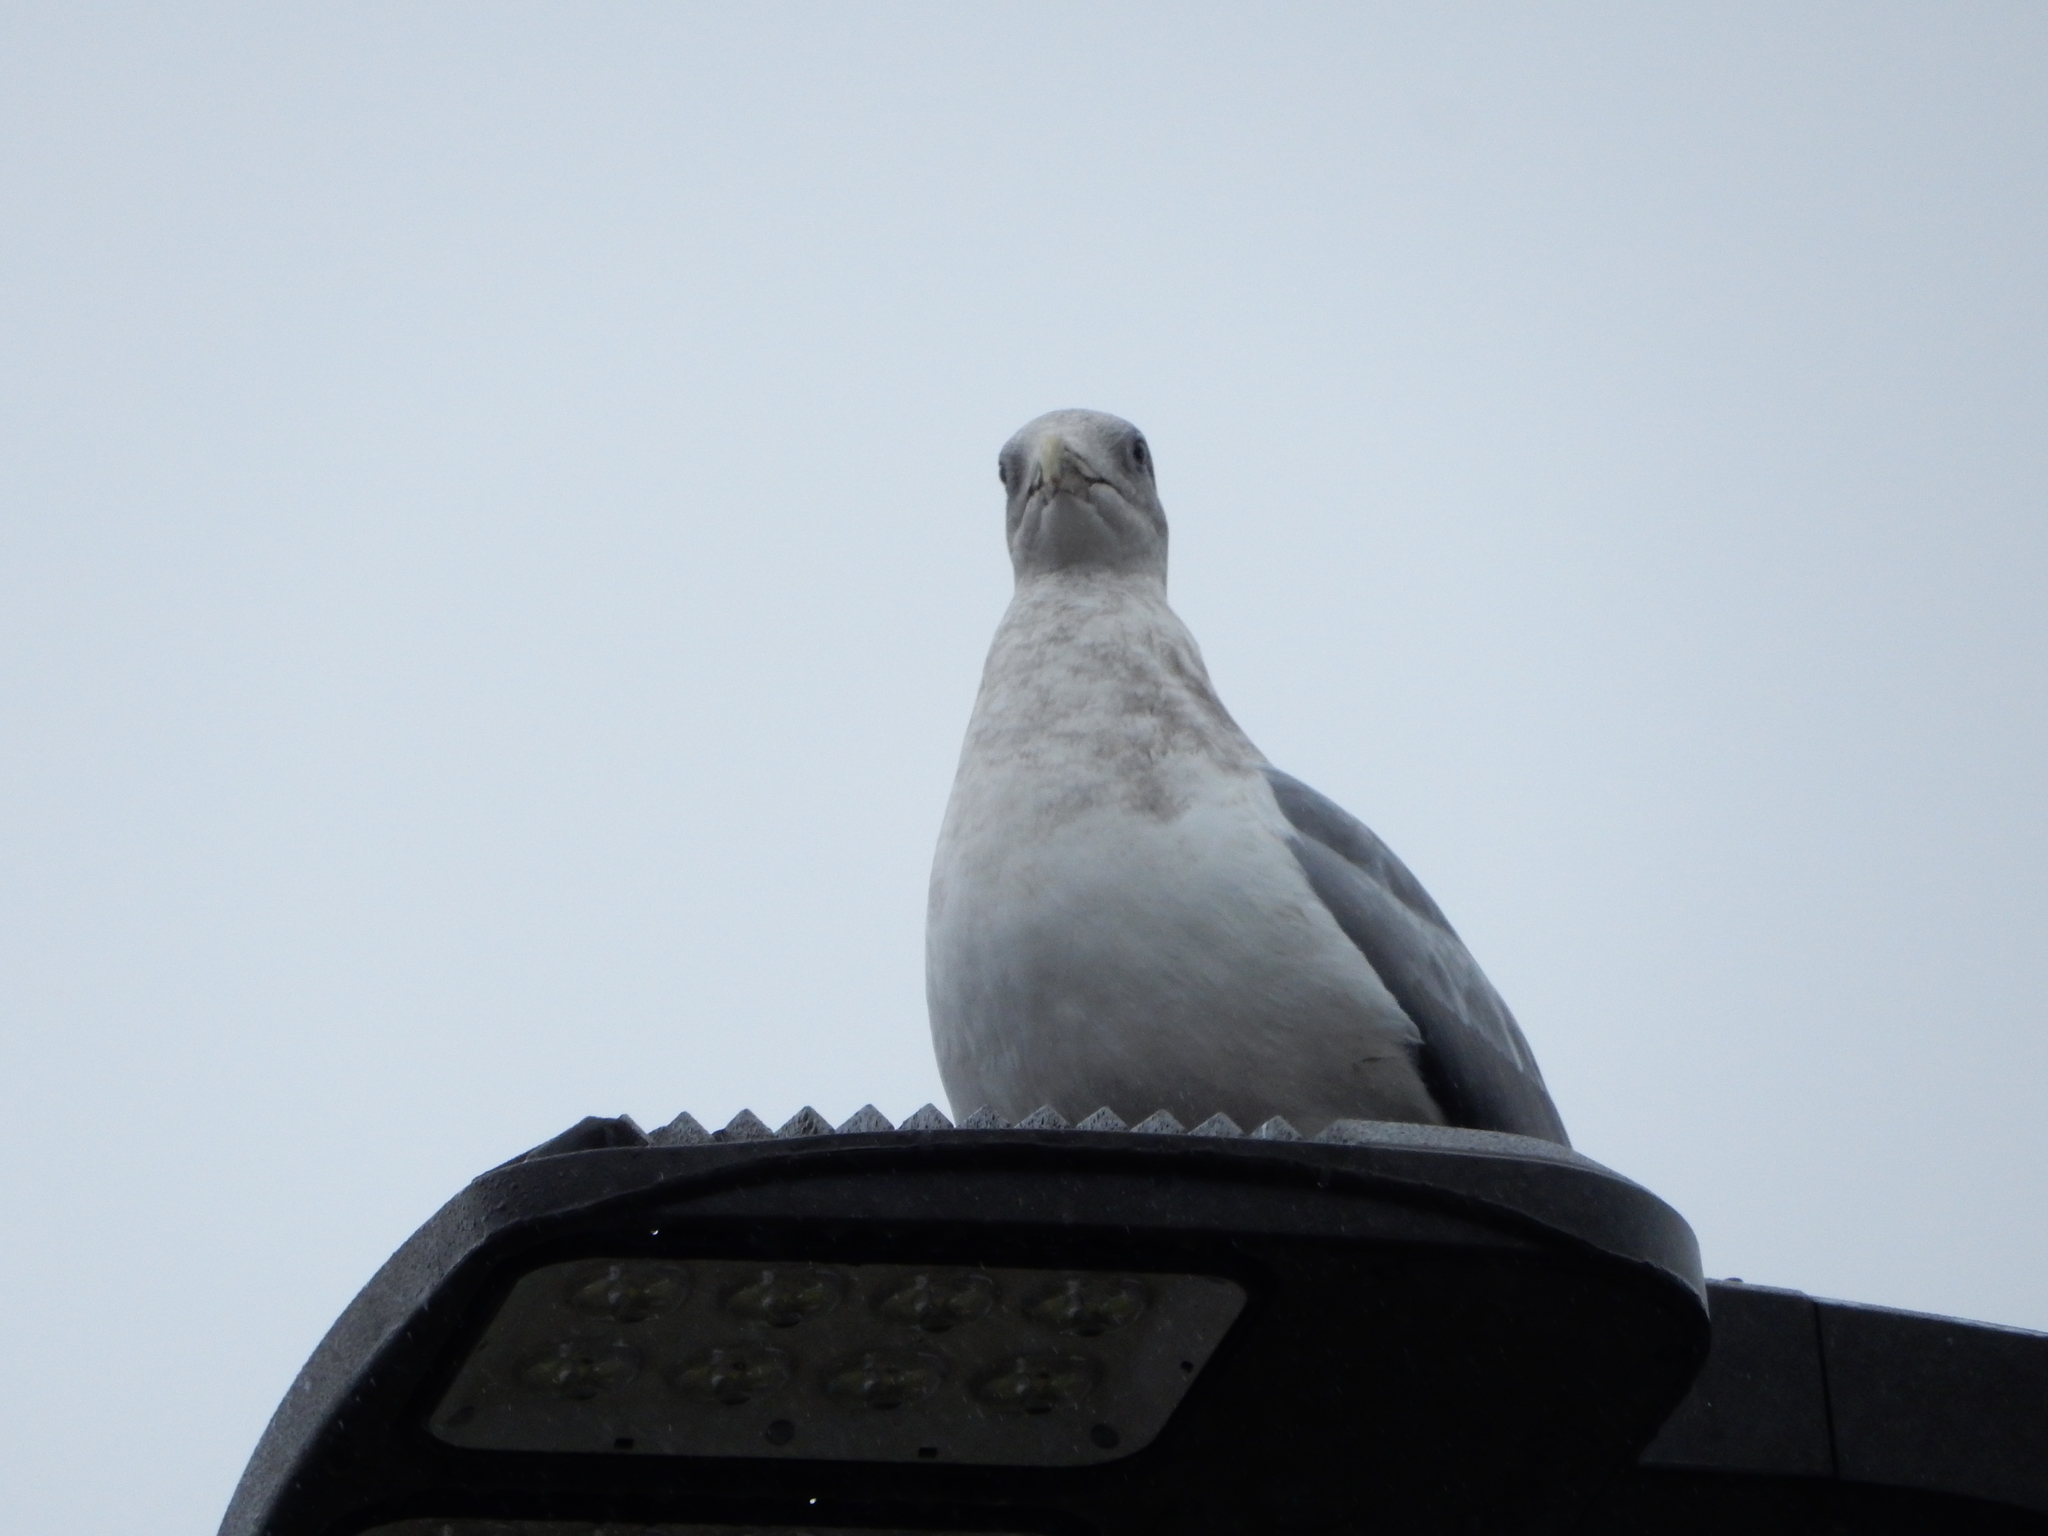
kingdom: Animalia
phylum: Chordata
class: Aves
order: Charadriiformes
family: Laridae
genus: Larus
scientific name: Larus
